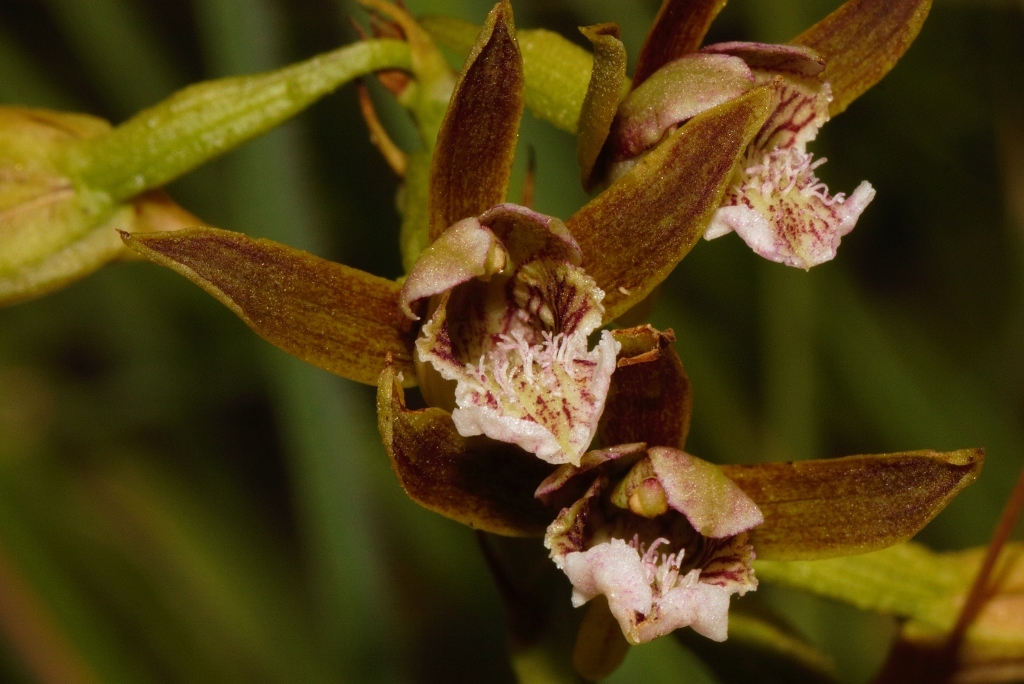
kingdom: Plantae
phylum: Tracheophyta
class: Liliopsida
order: Asparagales
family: Orchidaceae
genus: Eulophia
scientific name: Eulophia nyasae
